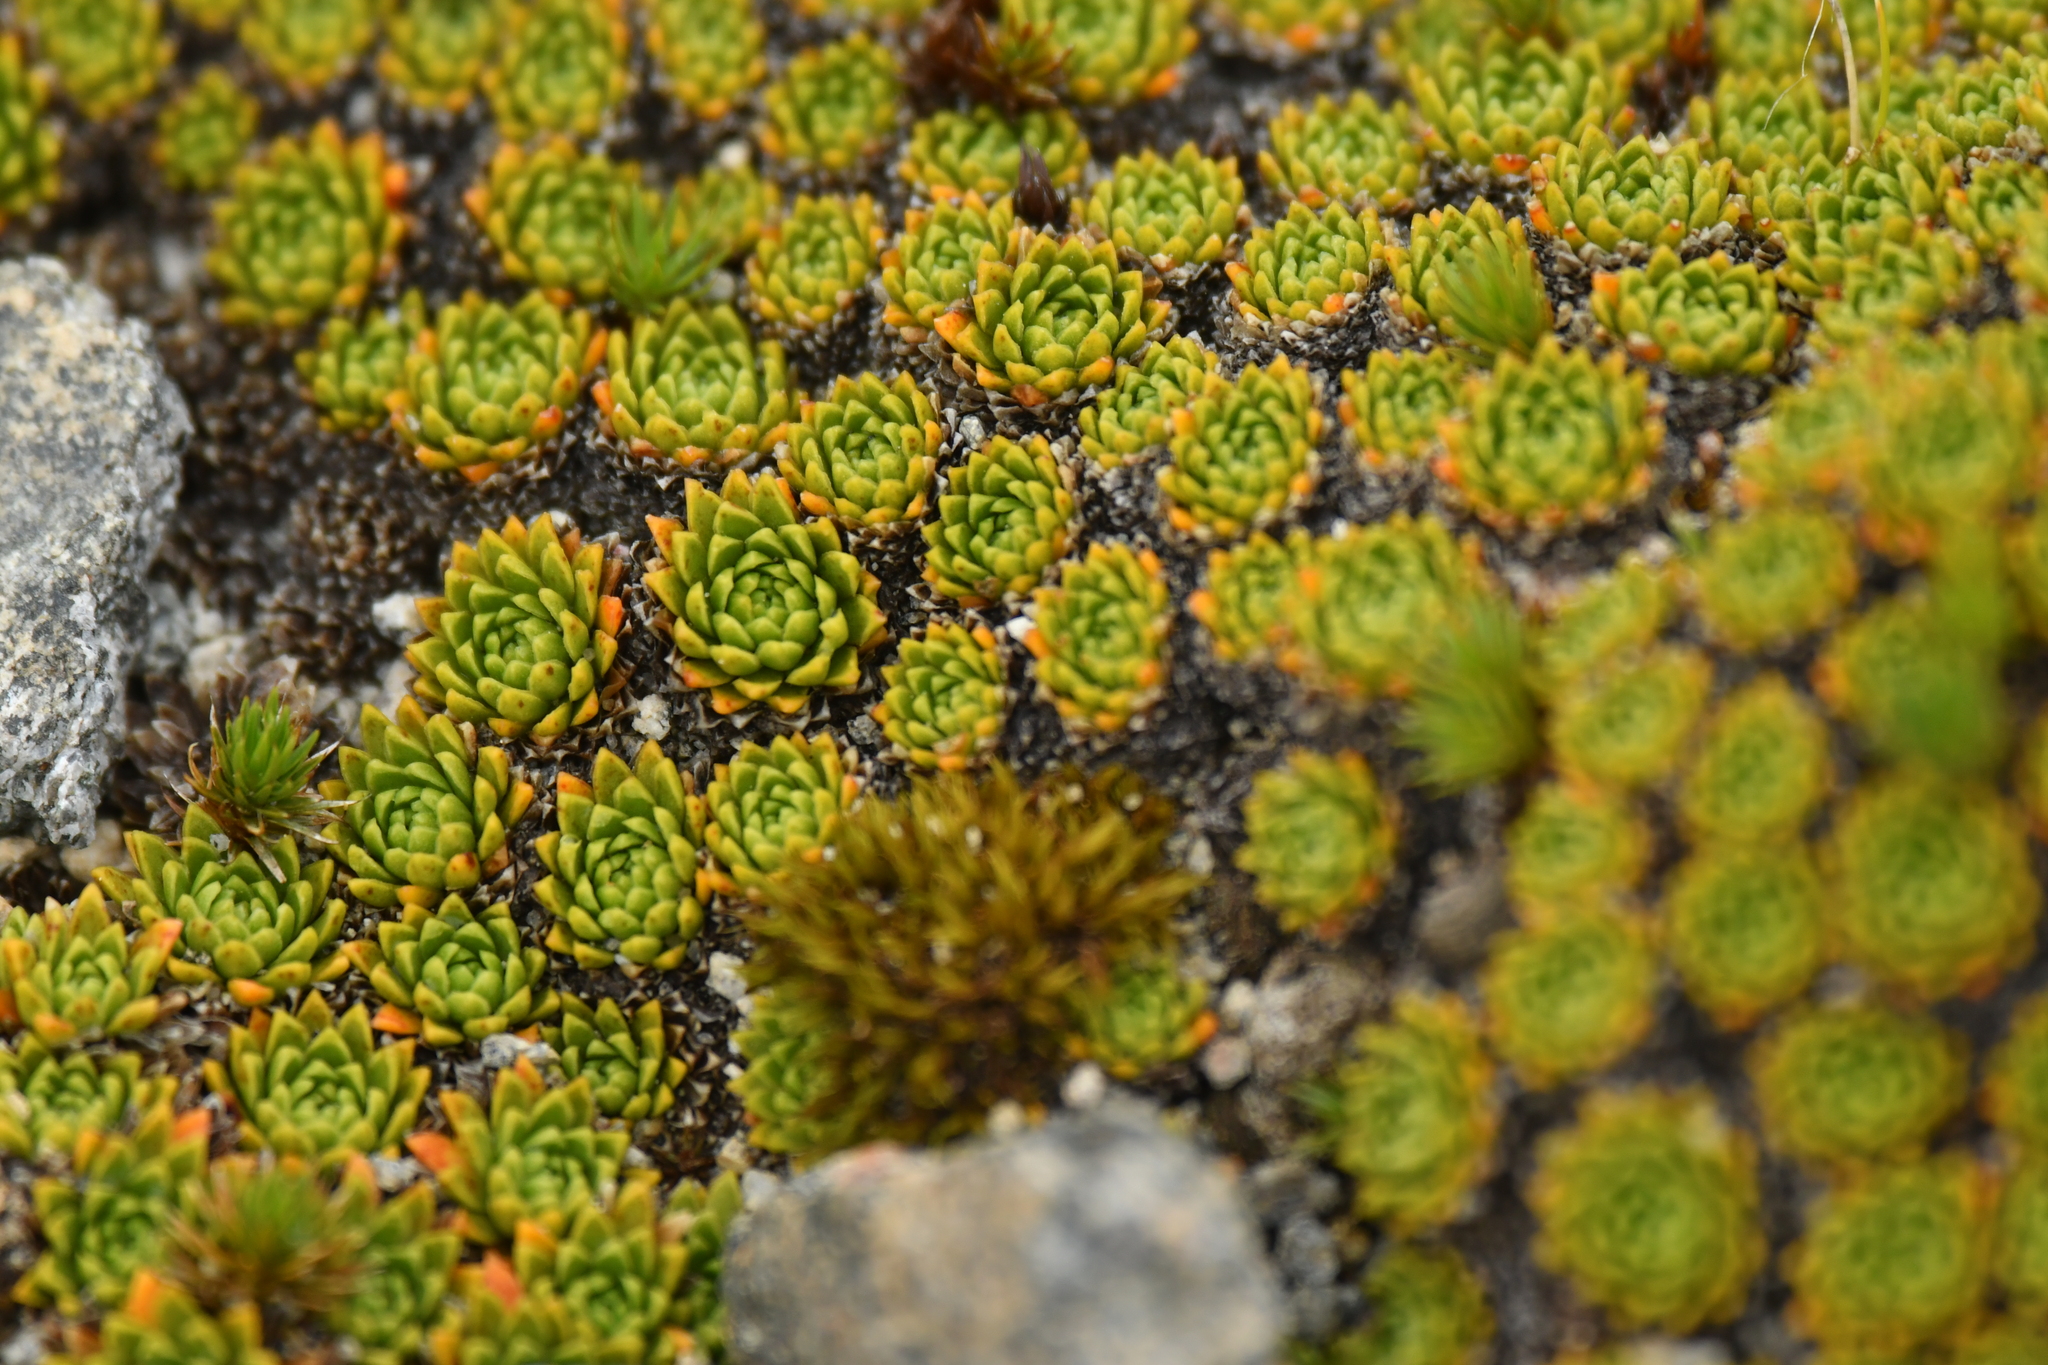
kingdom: Plantae
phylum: Tracheophyta
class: Magnoliopsida
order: Caryophyllales
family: Montiaceae
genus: Hectorella
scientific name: Hectorella caespitosa
